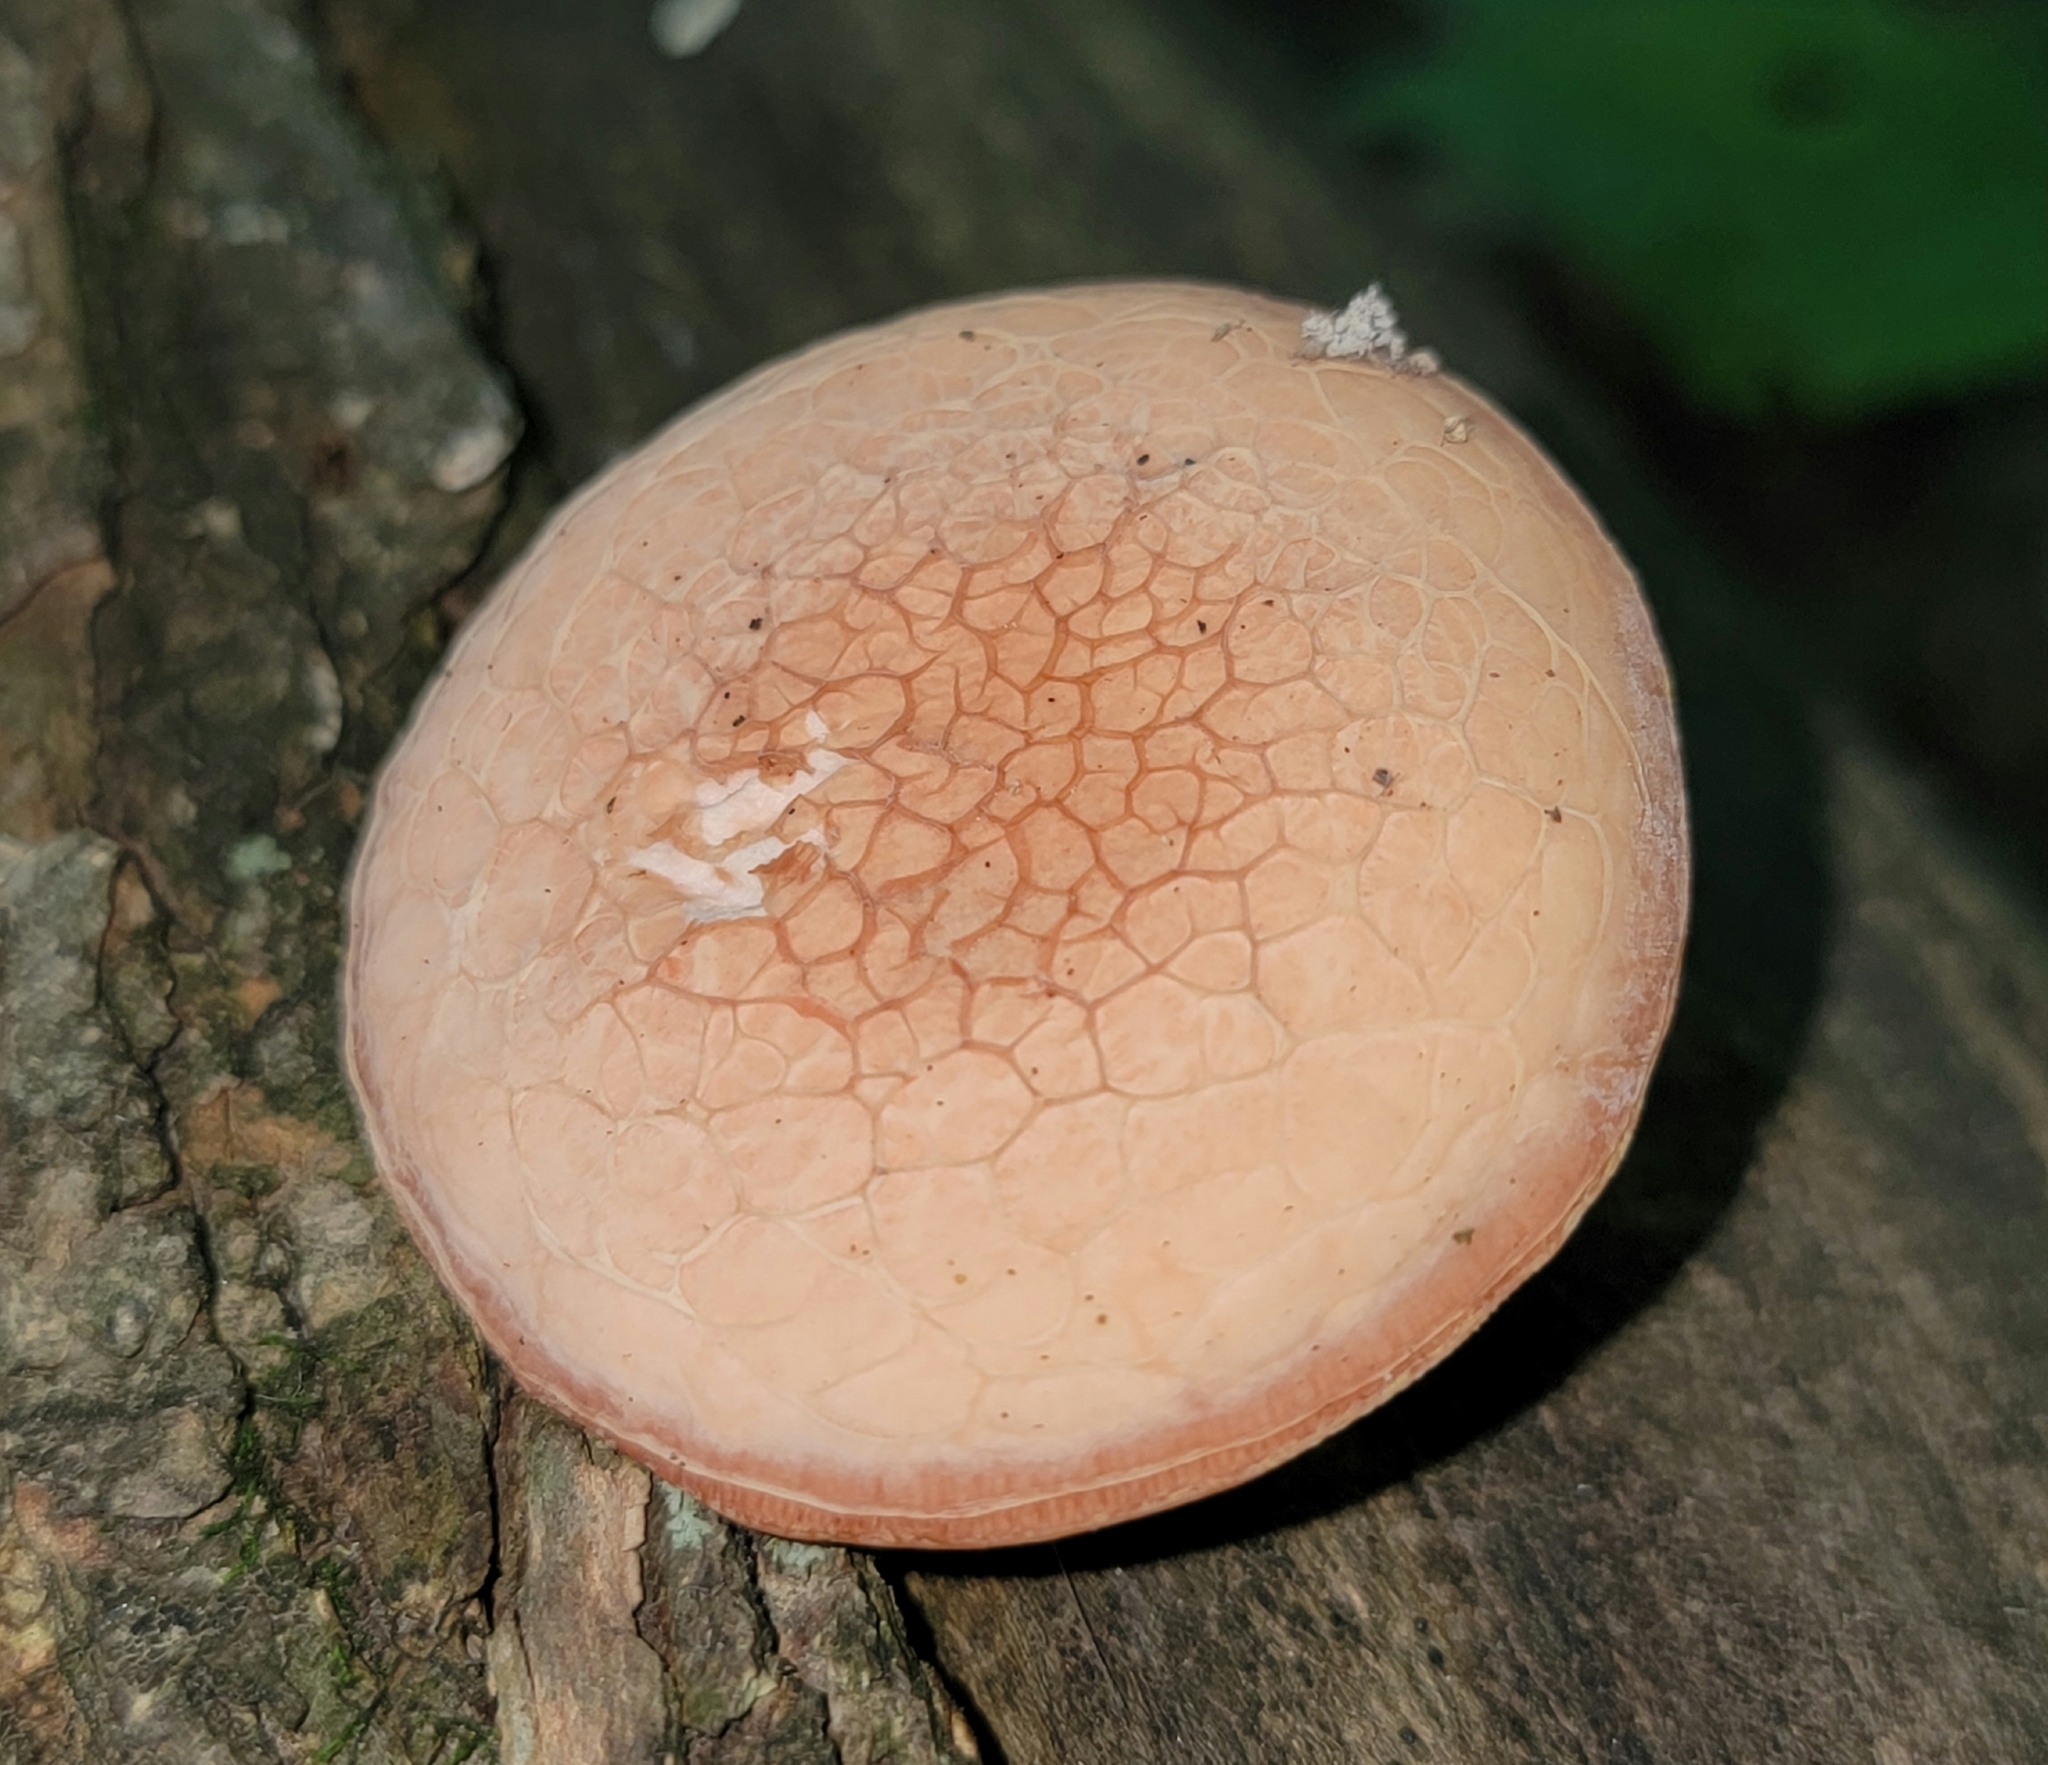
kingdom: Fungi
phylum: Basidiomycota
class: Agaricomycetes
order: Agaricales
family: Physalacriaceae
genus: Rhodotus
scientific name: Rhodotus palmatus
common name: Wrinkled peach
